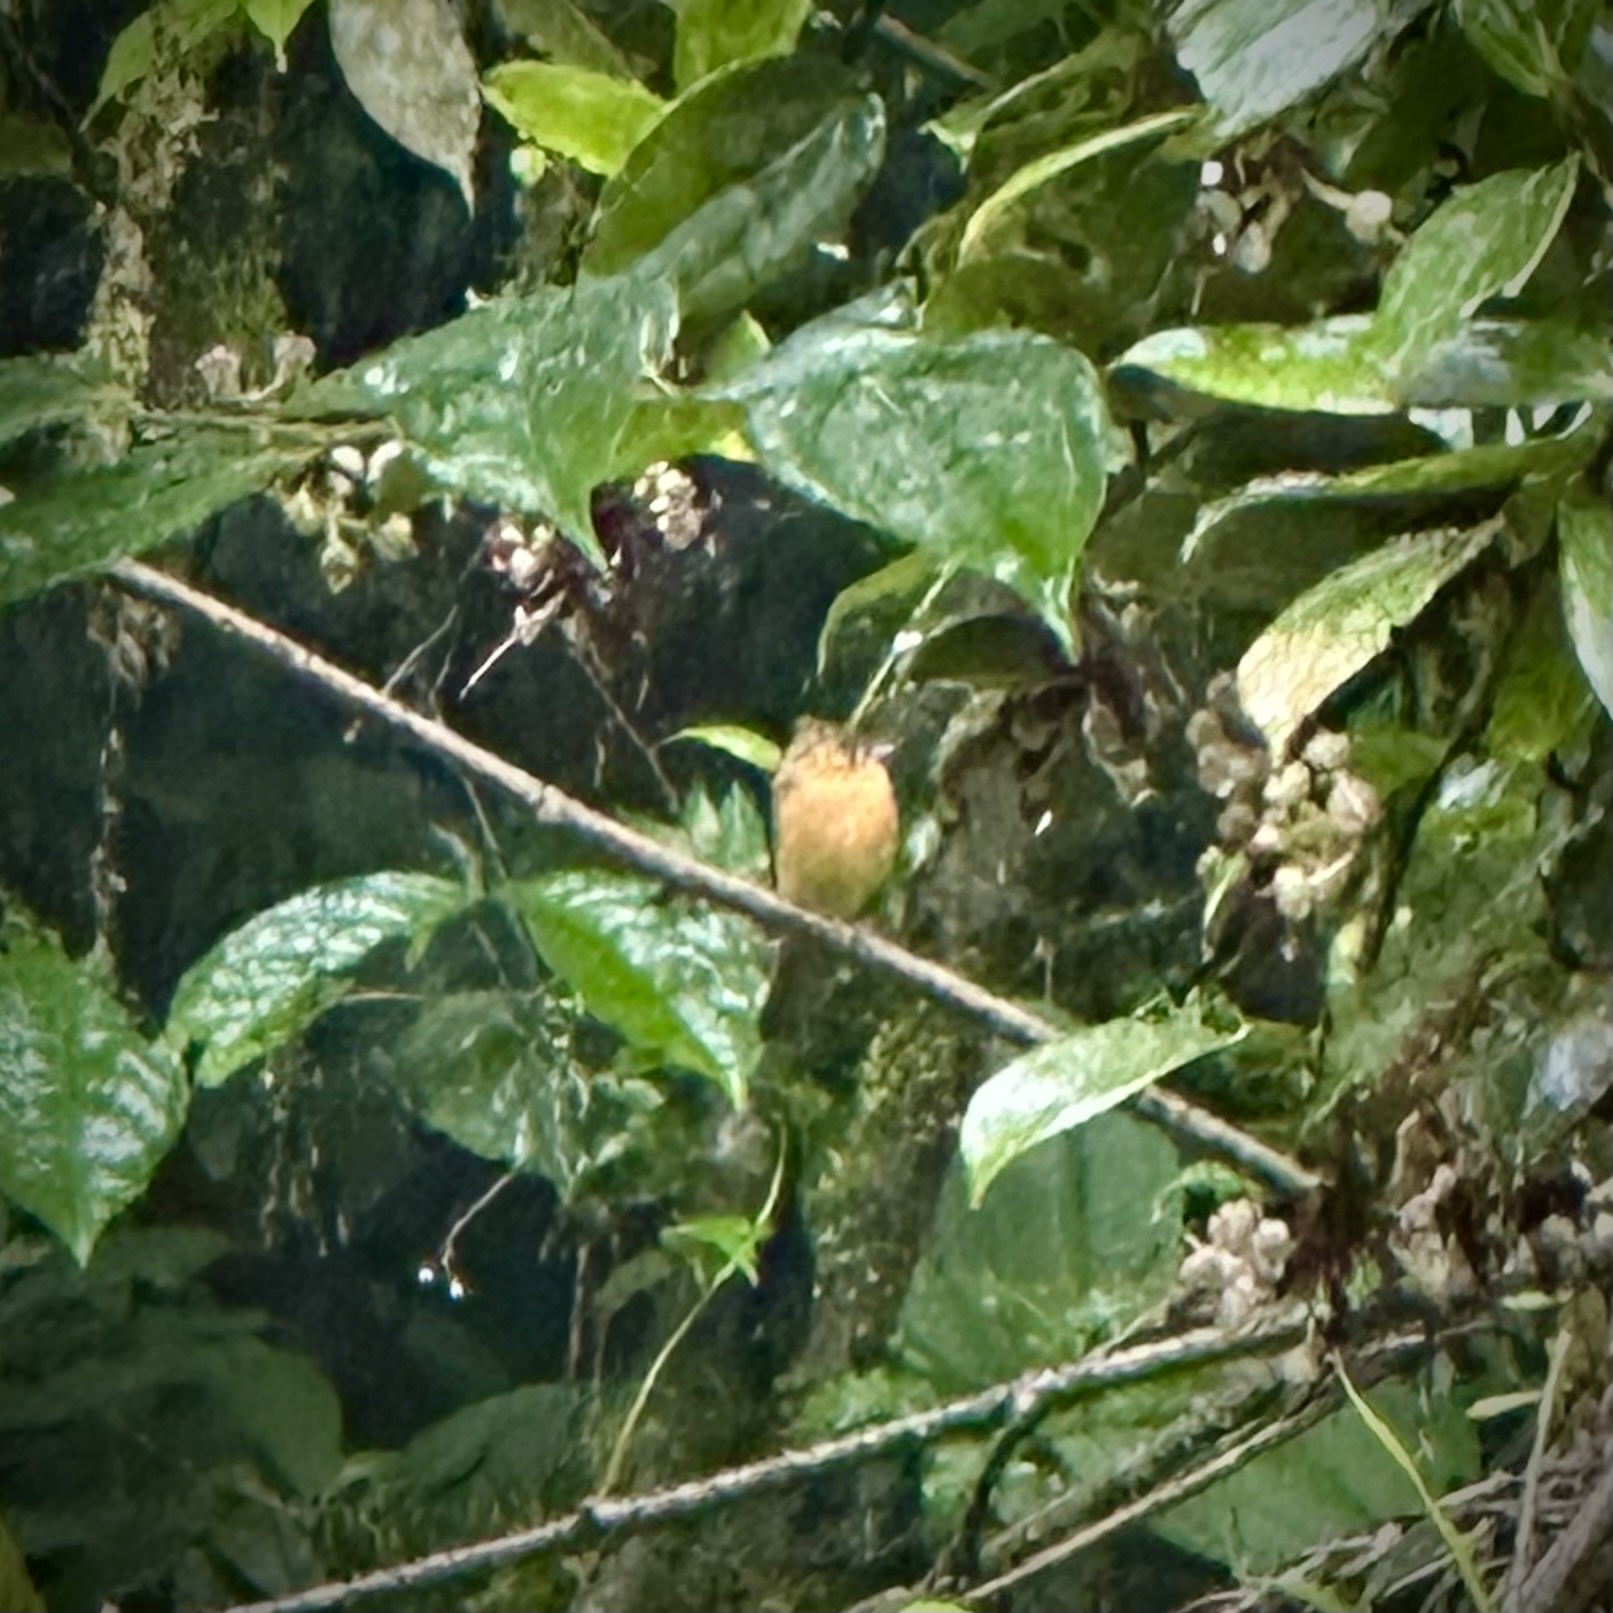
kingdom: Animalia
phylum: Chordata
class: Aves
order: Passeriformes
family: Tyrannidae
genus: Mitrephanes
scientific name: Mitrephanes phaeocercus
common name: Northern tufted flycatcher
